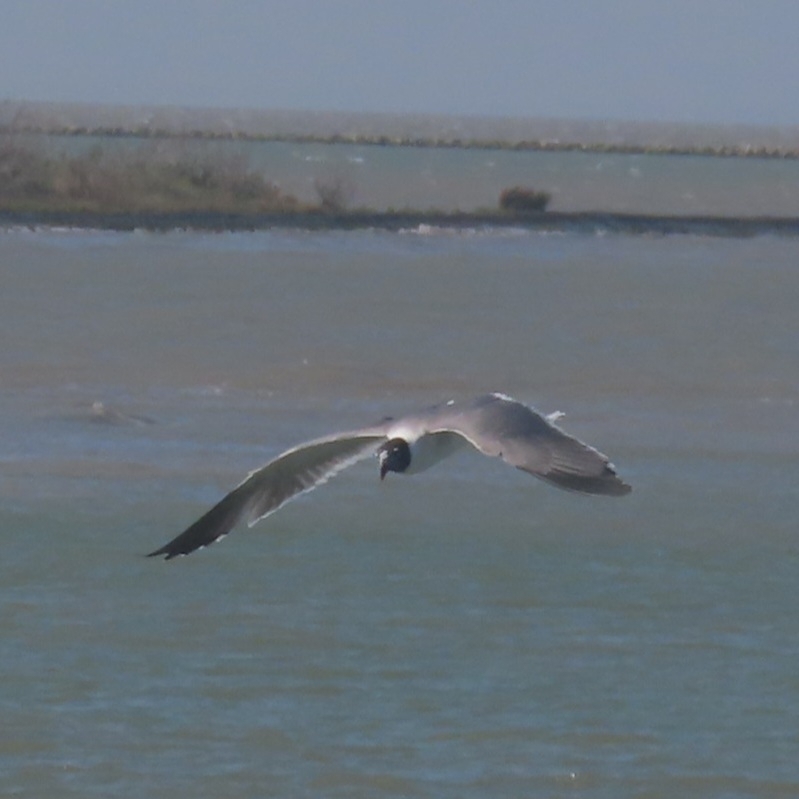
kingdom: Animalia
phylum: Chordata
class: Aves
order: Charadriiformes
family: Laridae
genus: Leucophaeus
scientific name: Leucophaeus atricilla
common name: Laughing gull
